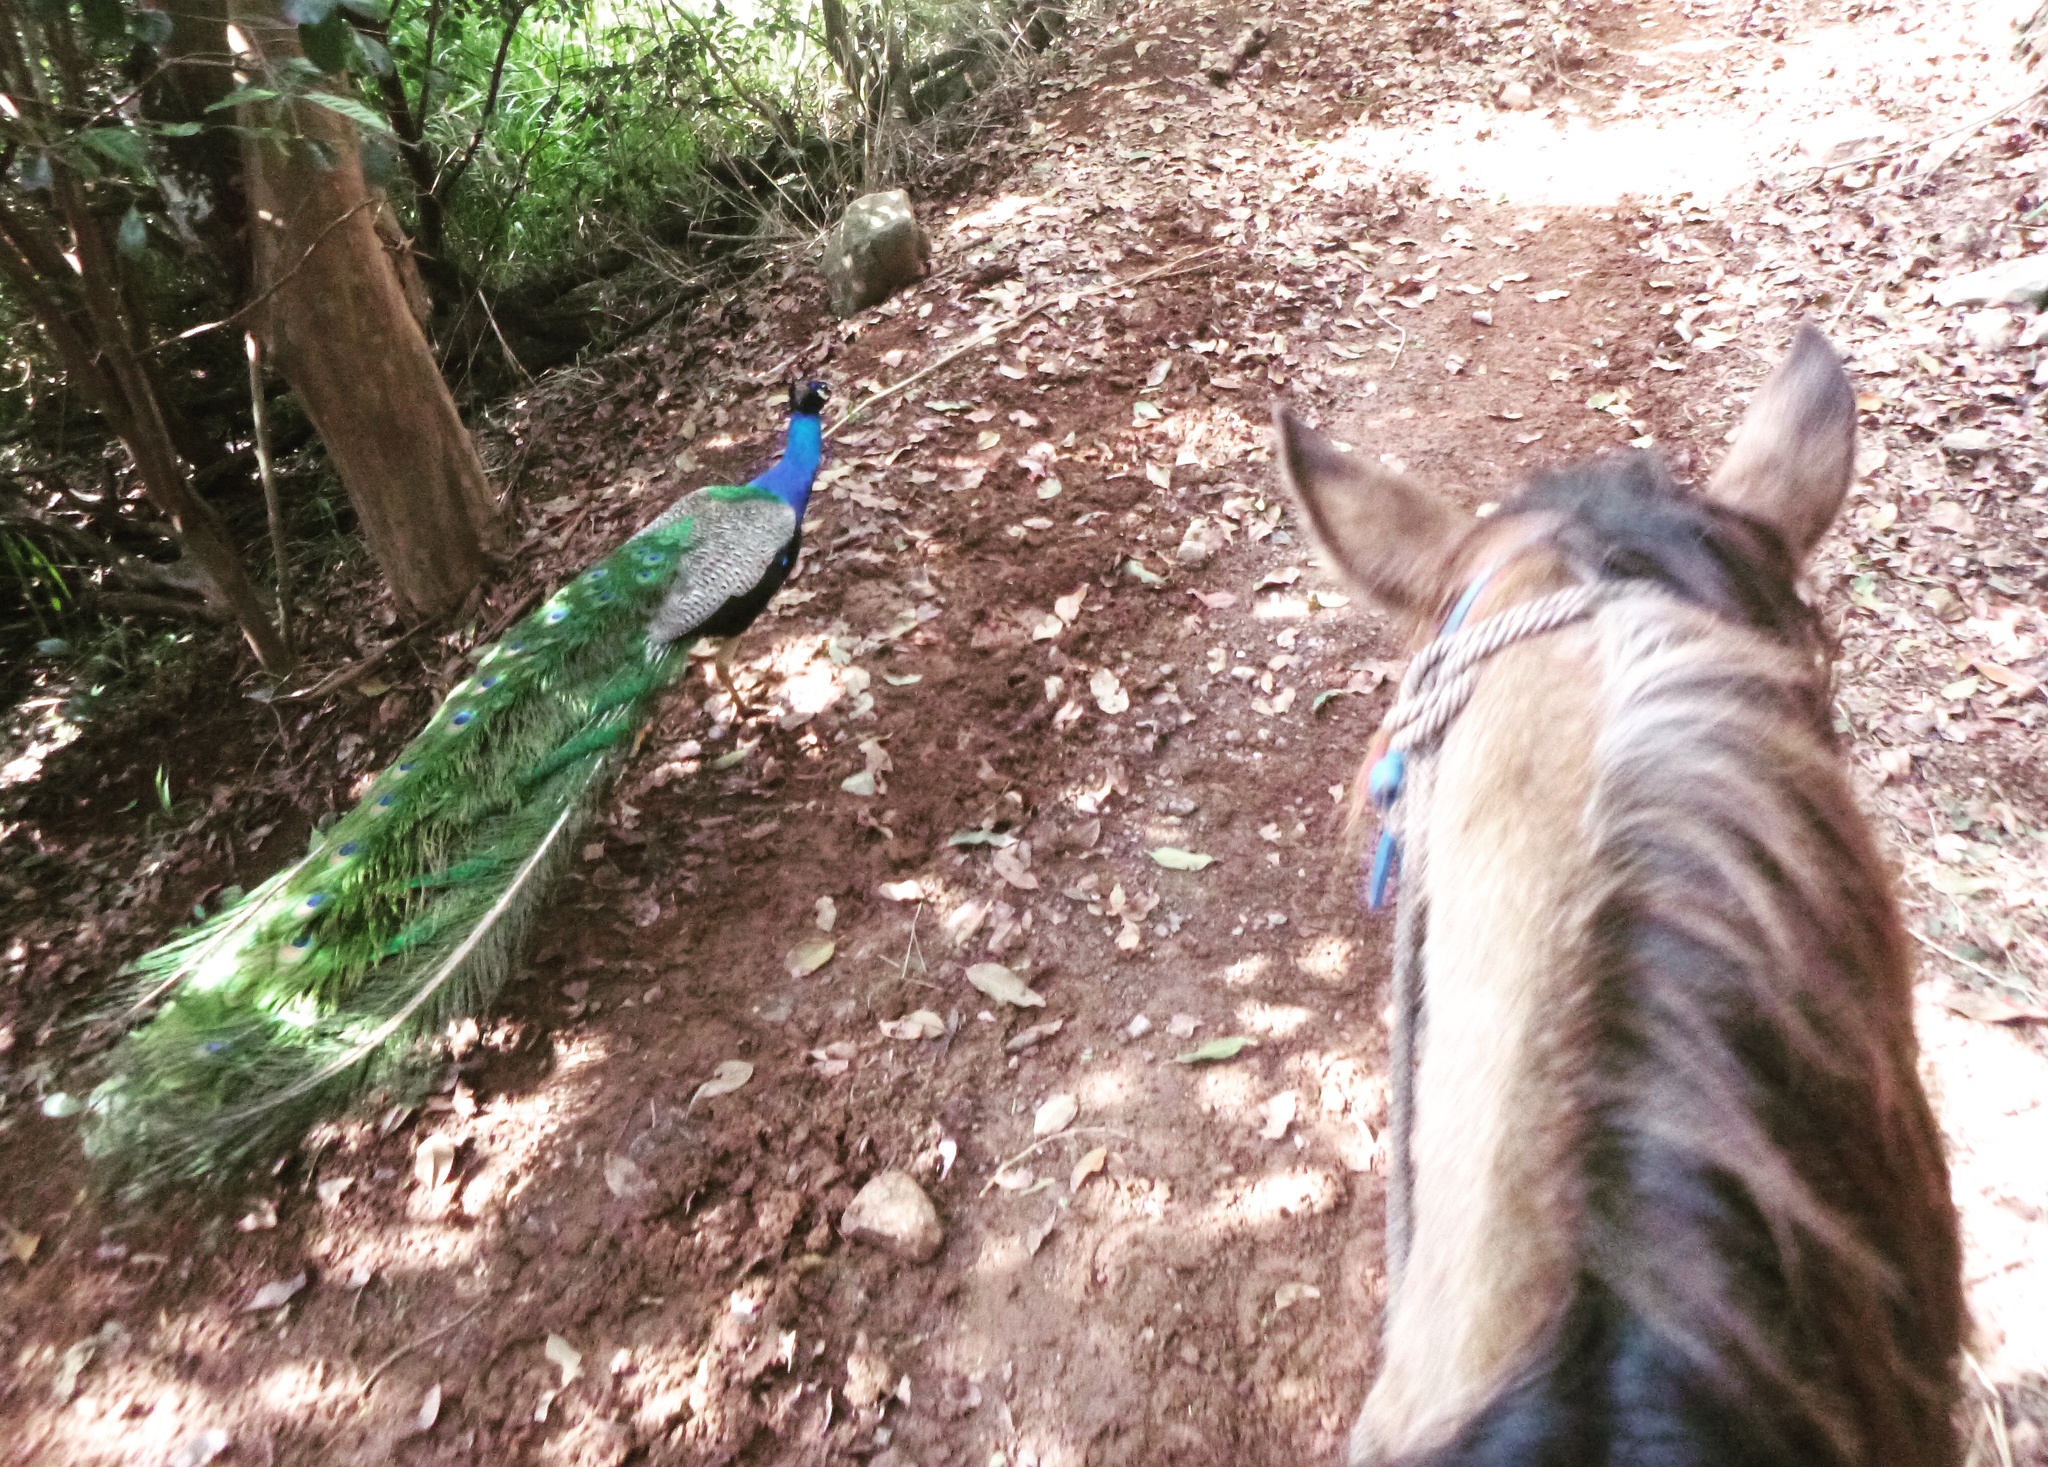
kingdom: Animalia
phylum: Chordata
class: Aves
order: Galliformes
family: Phasianidae
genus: Pavo
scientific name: Pavo cristatus
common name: Indian peafowl
